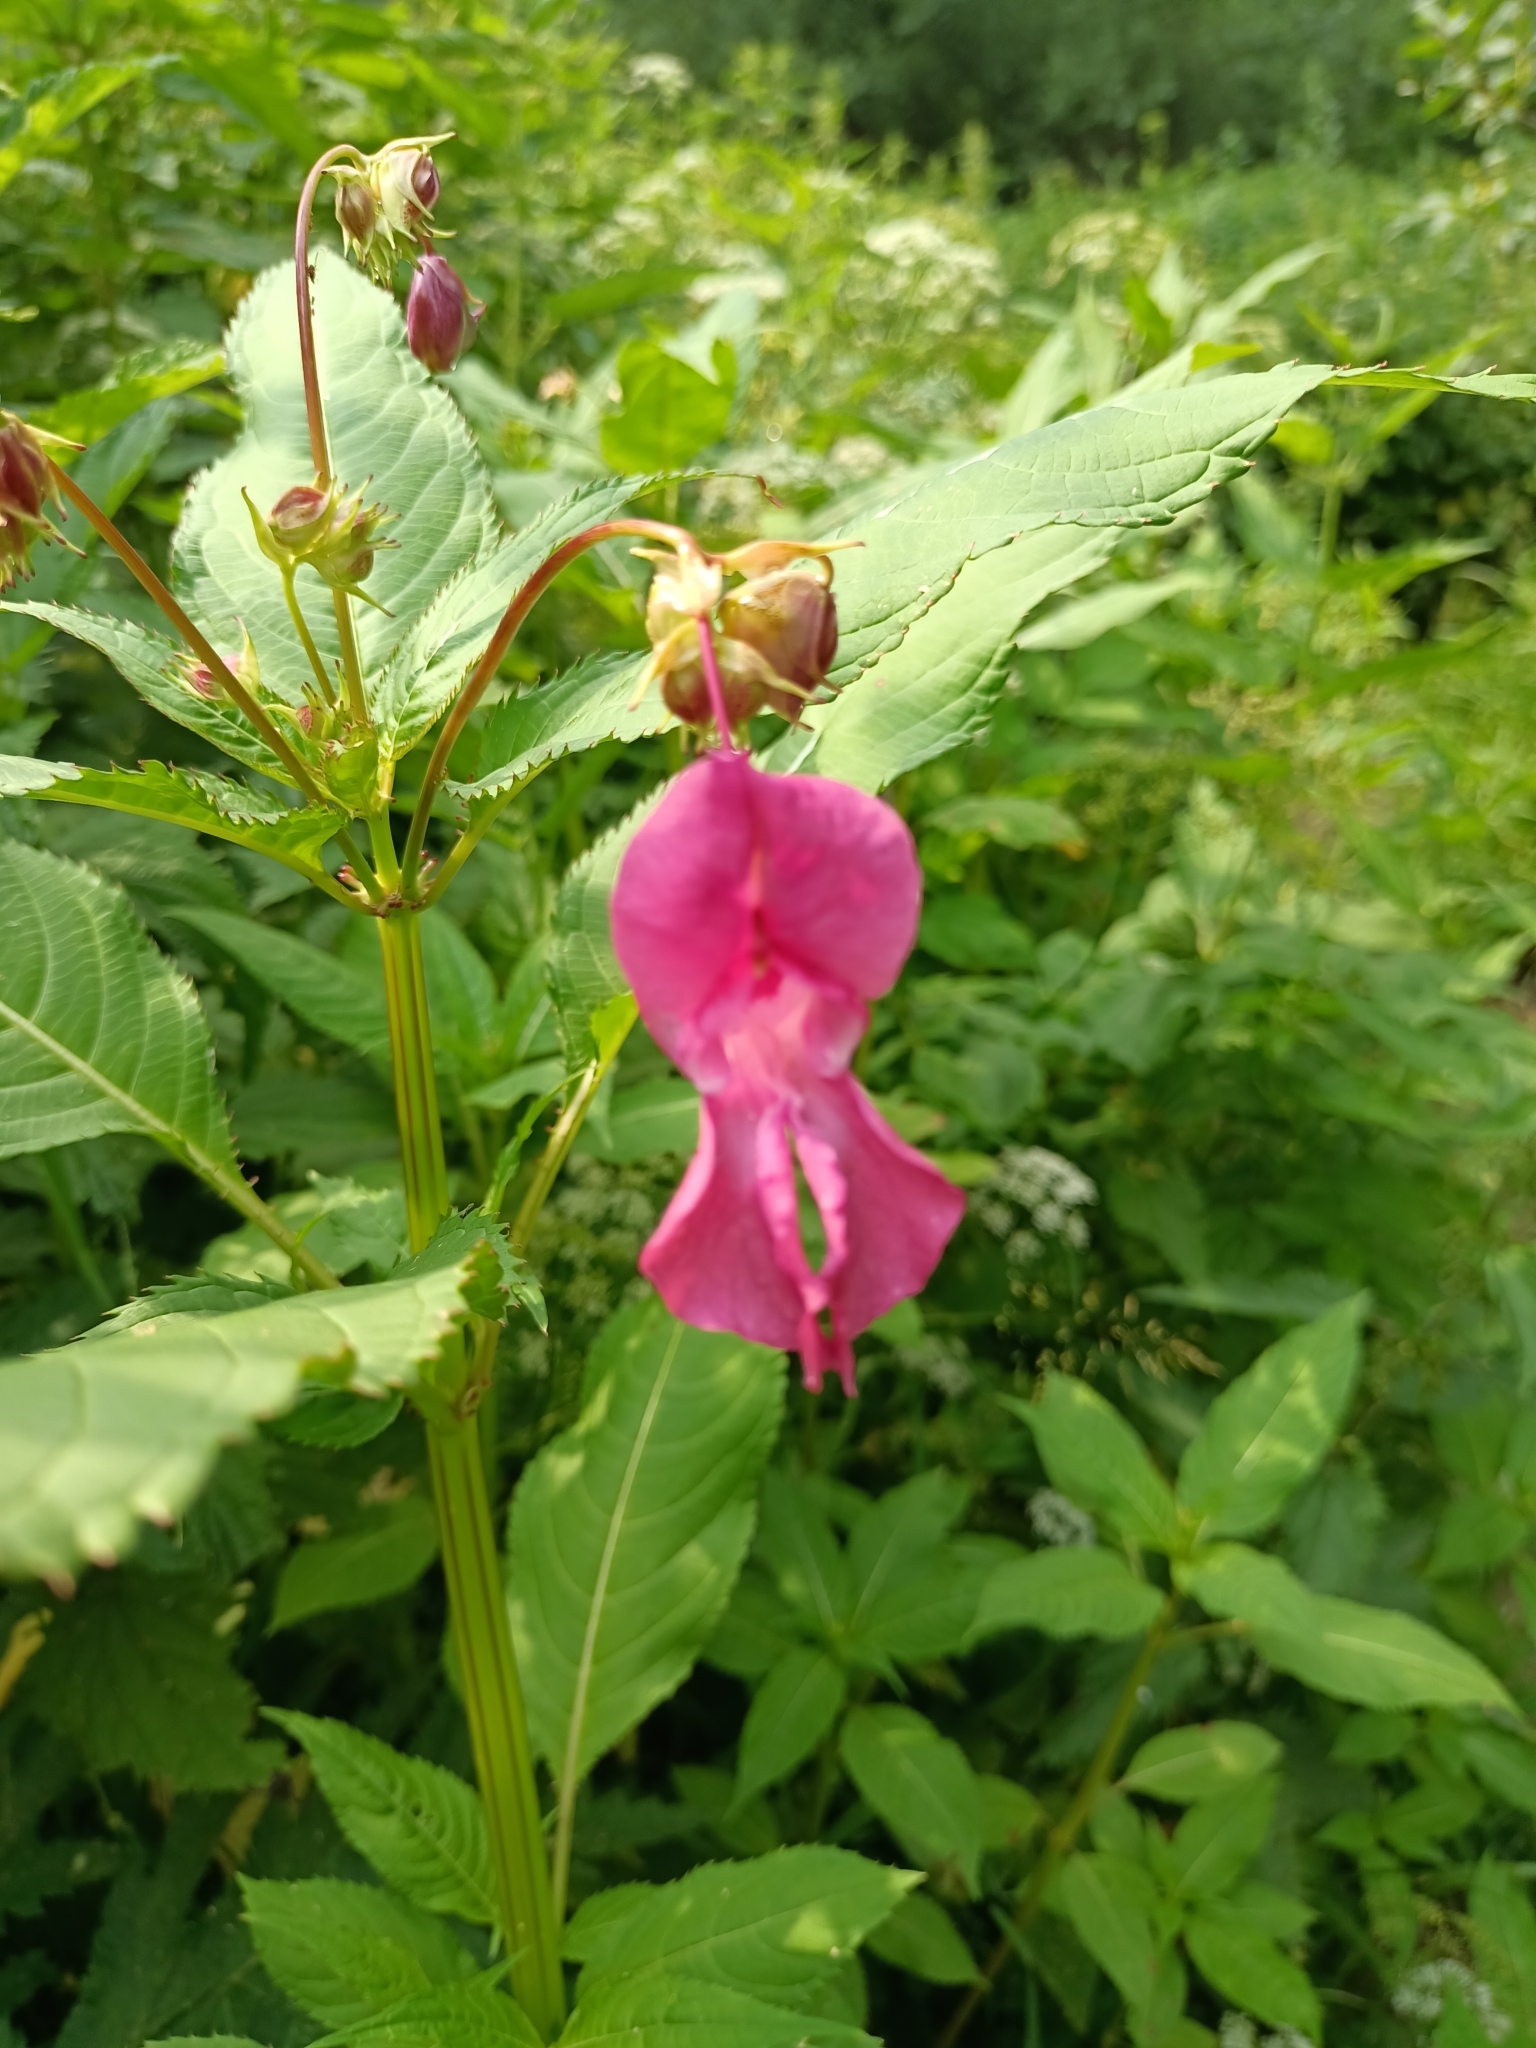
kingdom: Plantae
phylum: Tracheophyta
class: Magnoliopsida
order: Ericales
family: Balsaminaceae
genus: Impatiens
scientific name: Impatiens glandulifera
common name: Himalayan balsam
